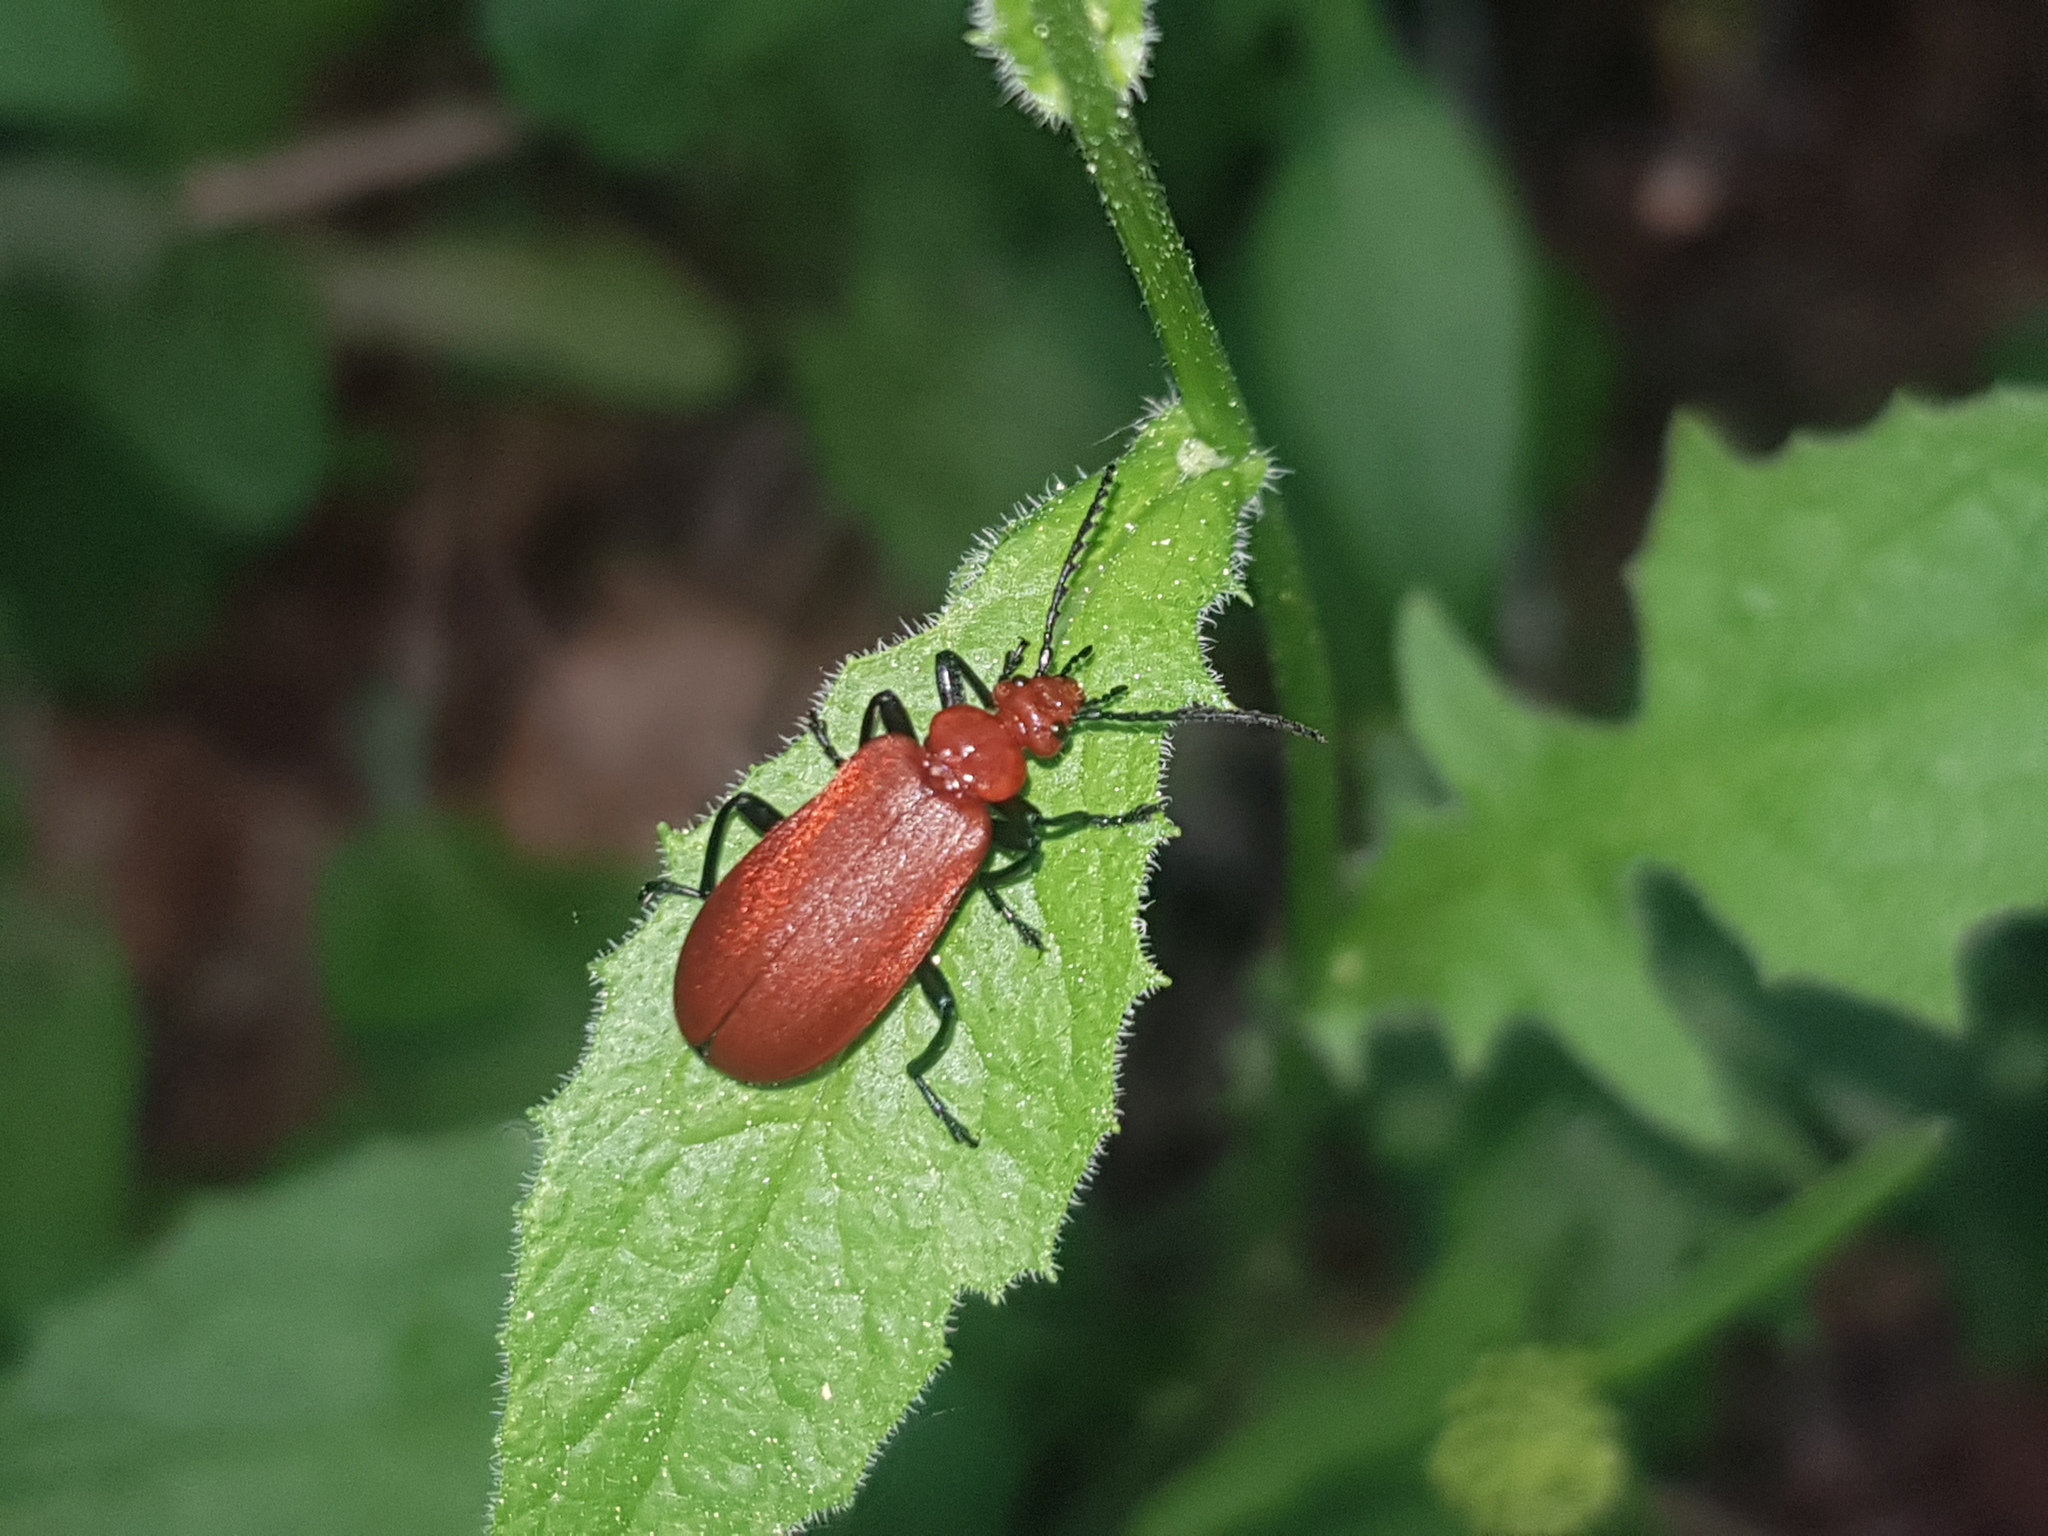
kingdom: Animalia
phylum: Arthropoda
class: Insecta
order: Coleoptera
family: Pyrochroidae
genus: Pyrochroa
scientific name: Pyrochroa serraticornis
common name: Red-headed cardinal beetle
